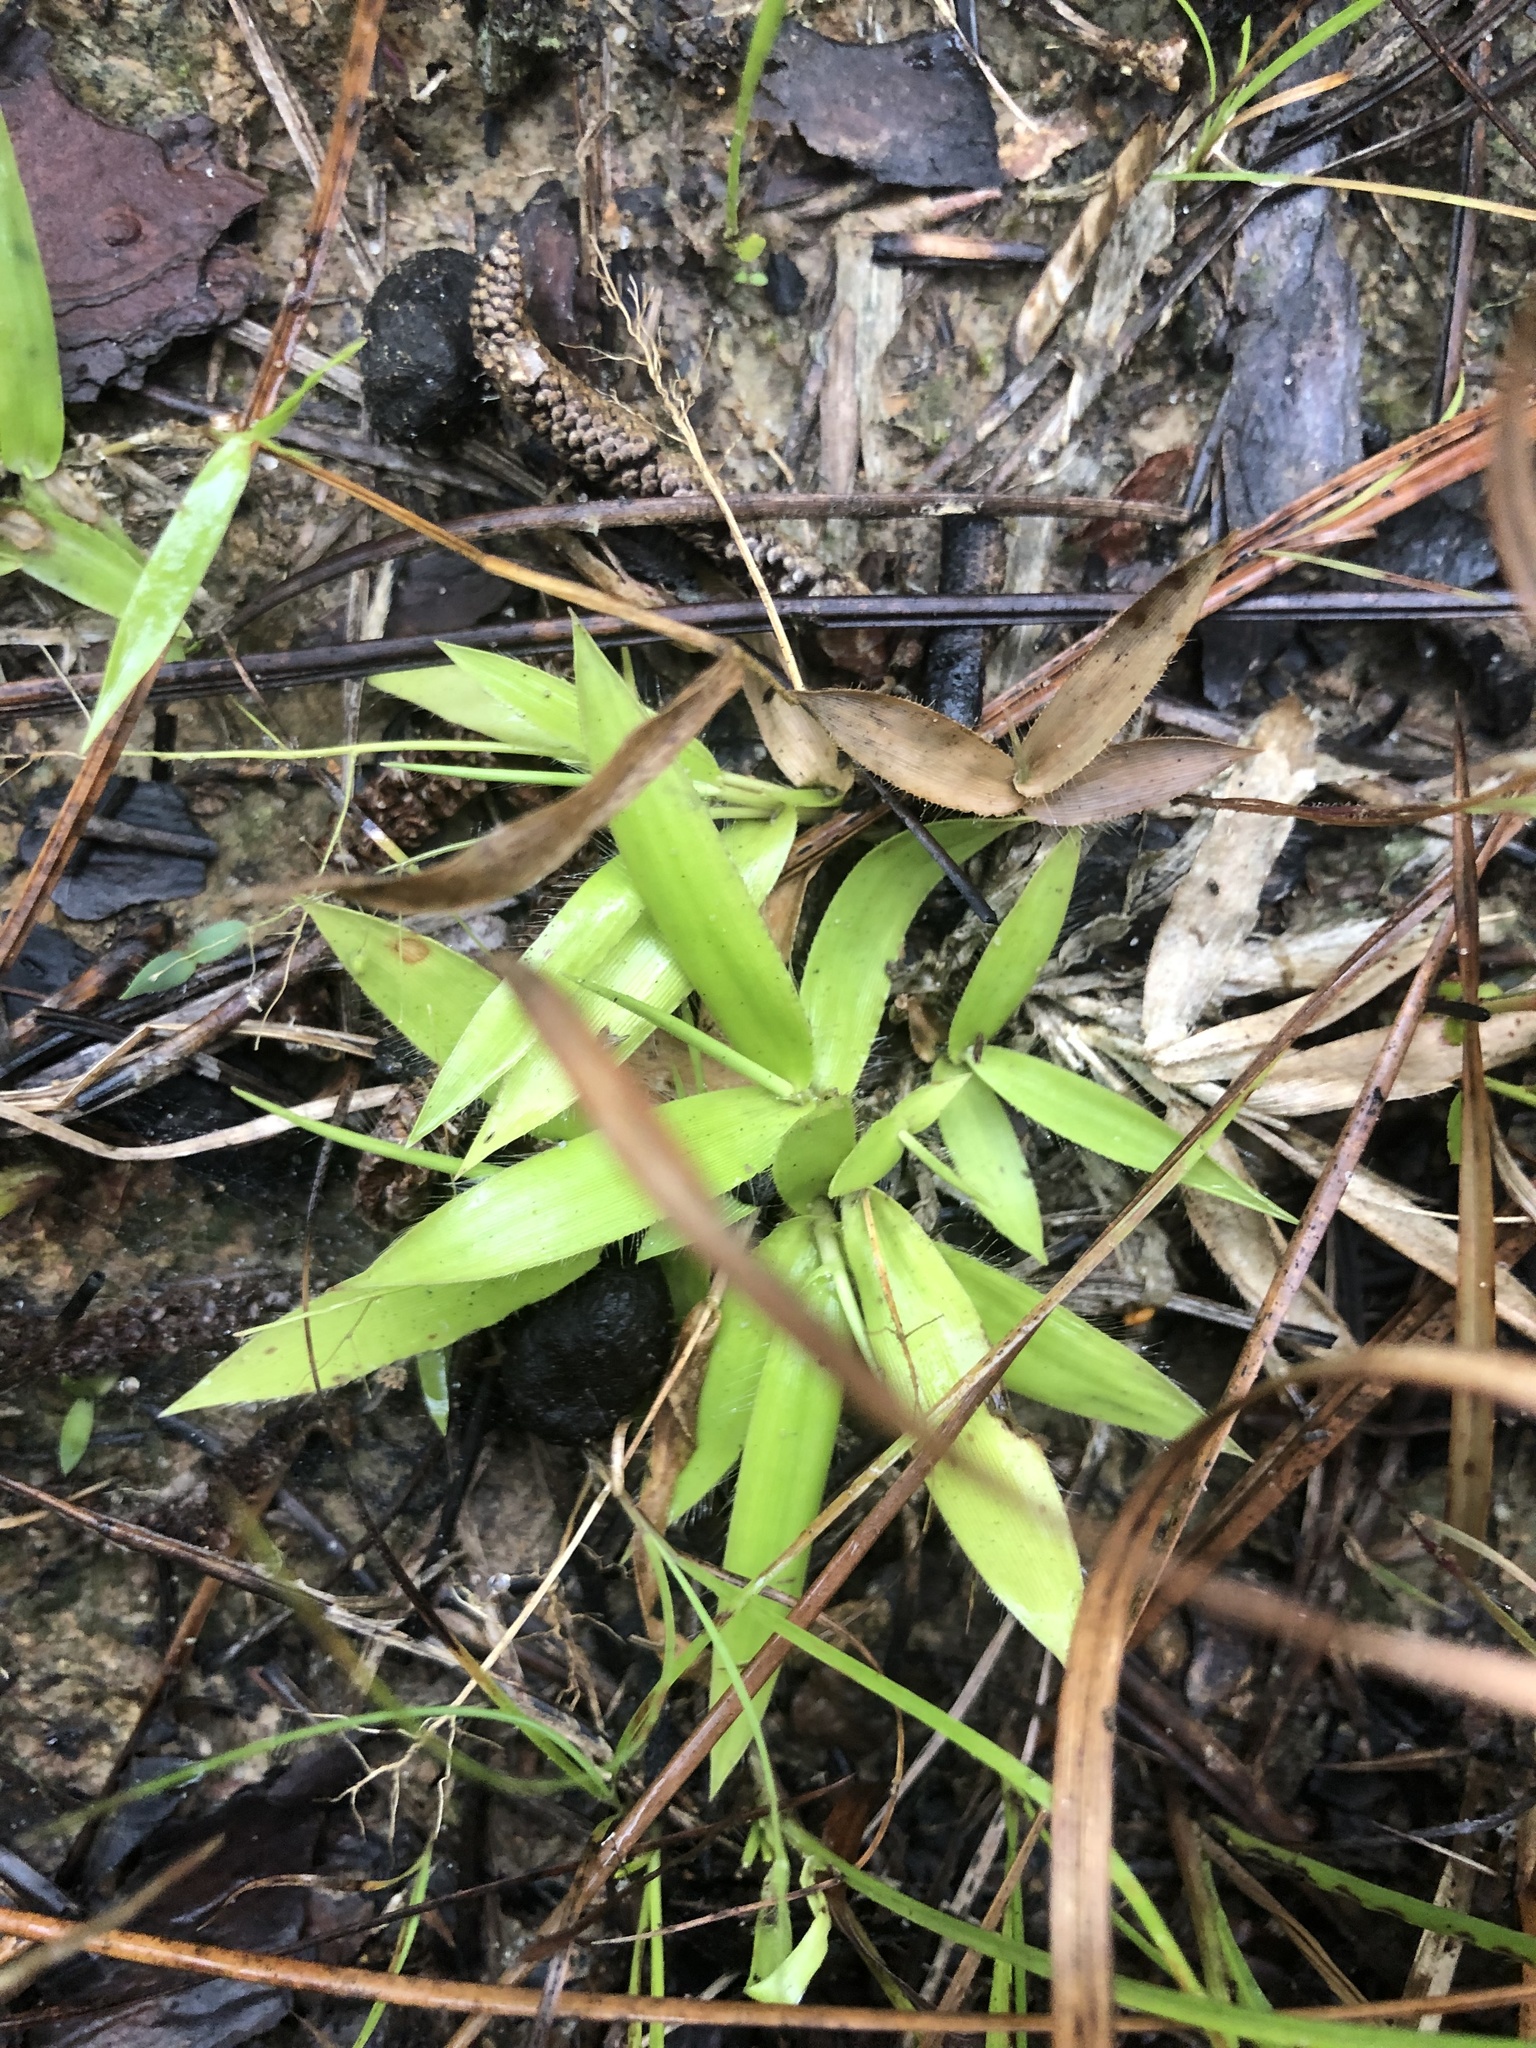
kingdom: Plantae
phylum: Tracheophyta
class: Liliopsida
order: Poales
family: Poaceae
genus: Dichanthelium
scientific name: Dichanthelium strigosum
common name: Cushion-tuft panic grass
